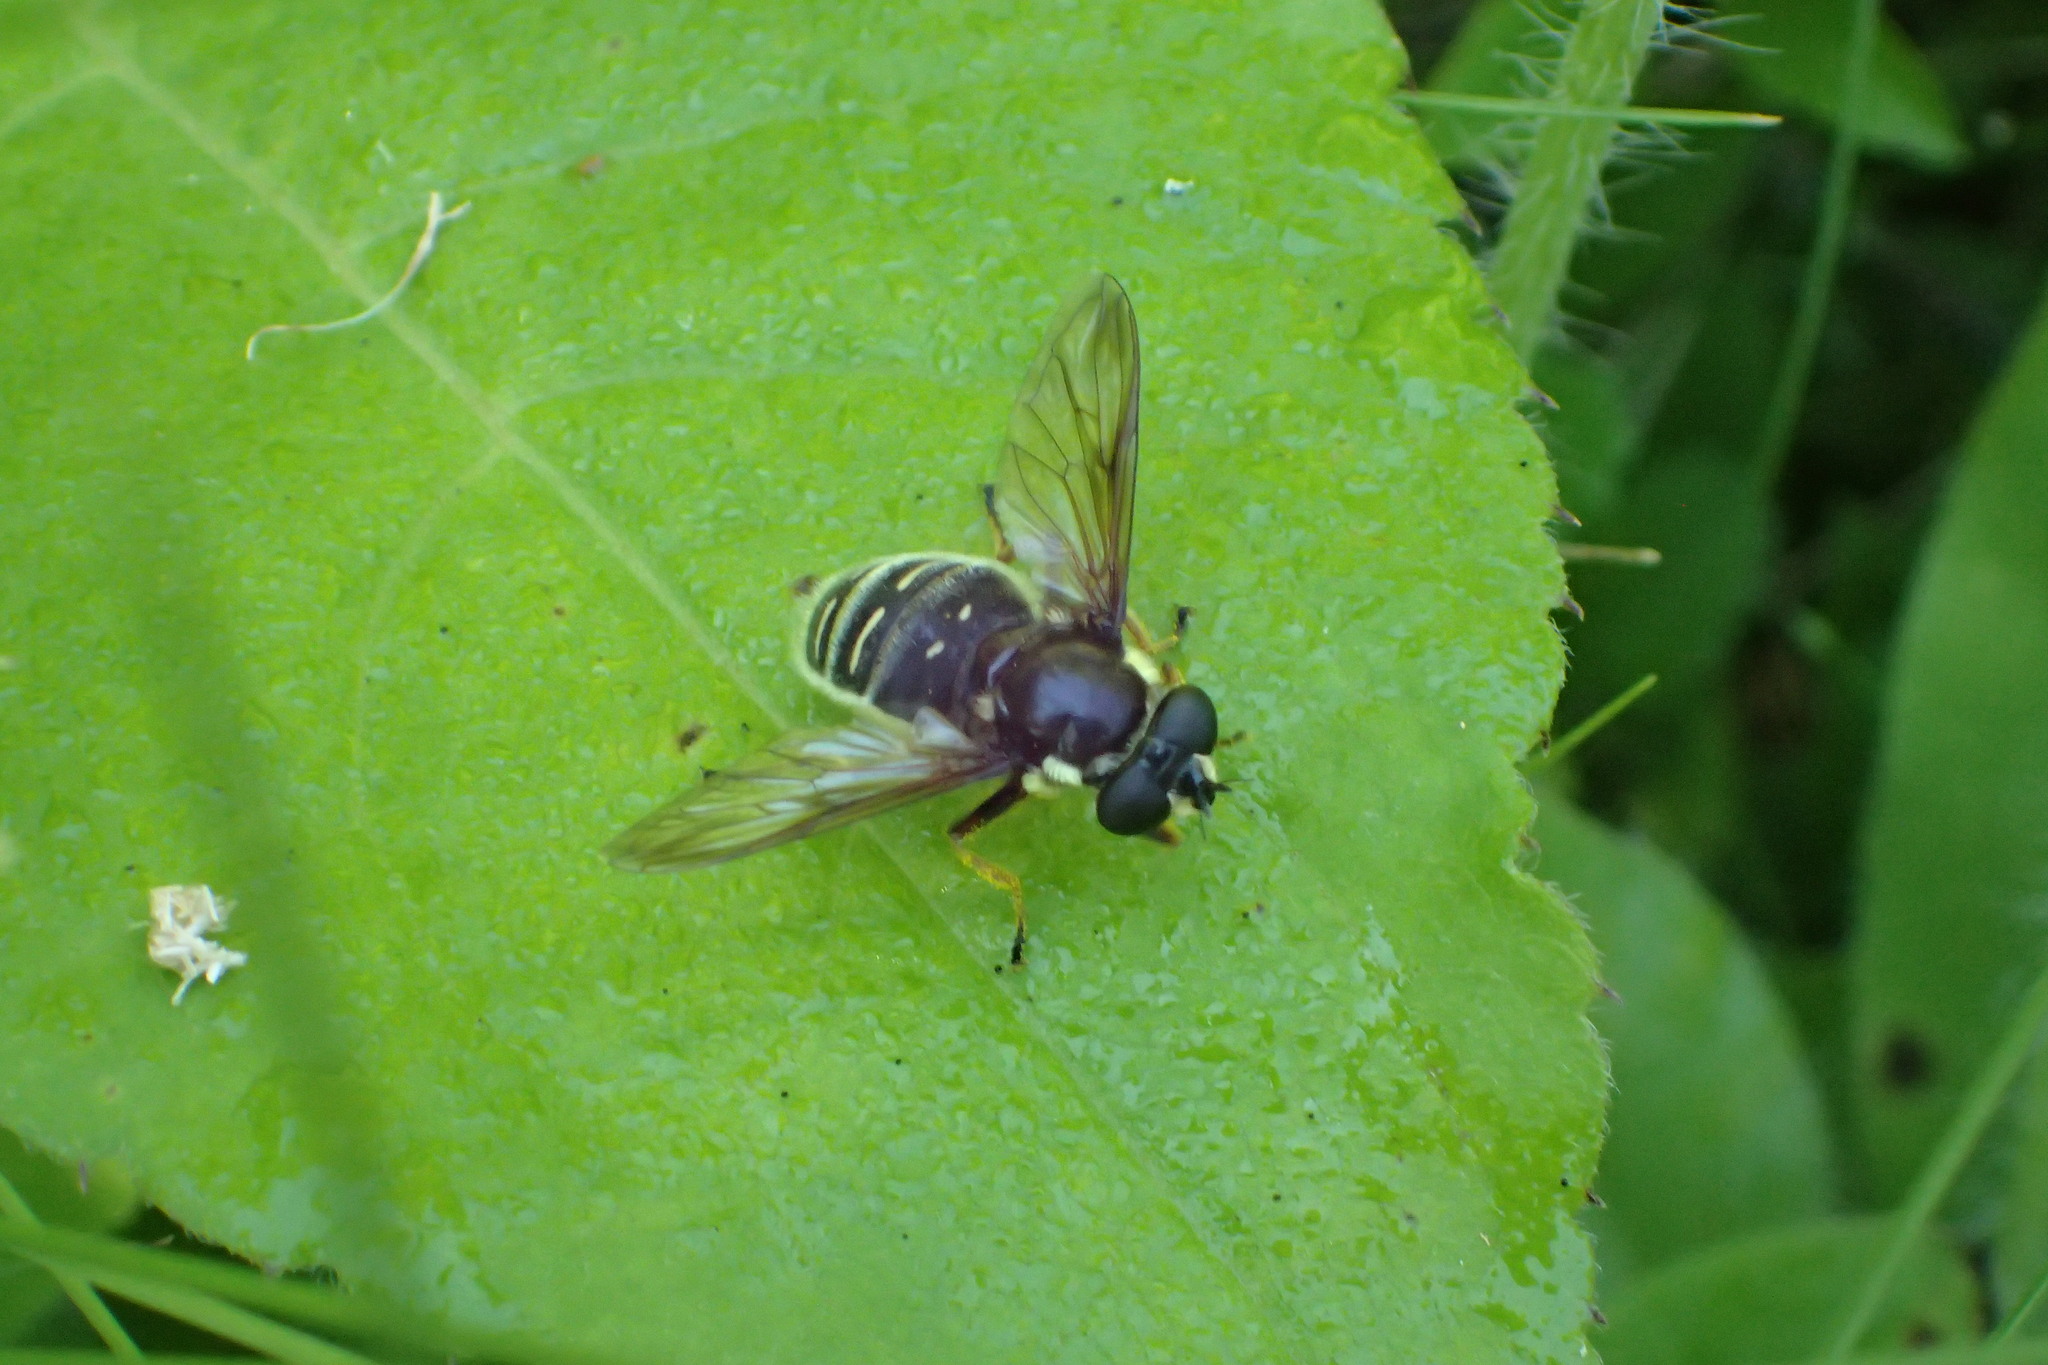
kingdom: Animalia
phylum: Arthropoda
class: Insecta
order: Diptera
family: Syrphidae
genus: Sericomyia
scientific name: Sericomyia militaris
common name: Narrow-banded pond fly
